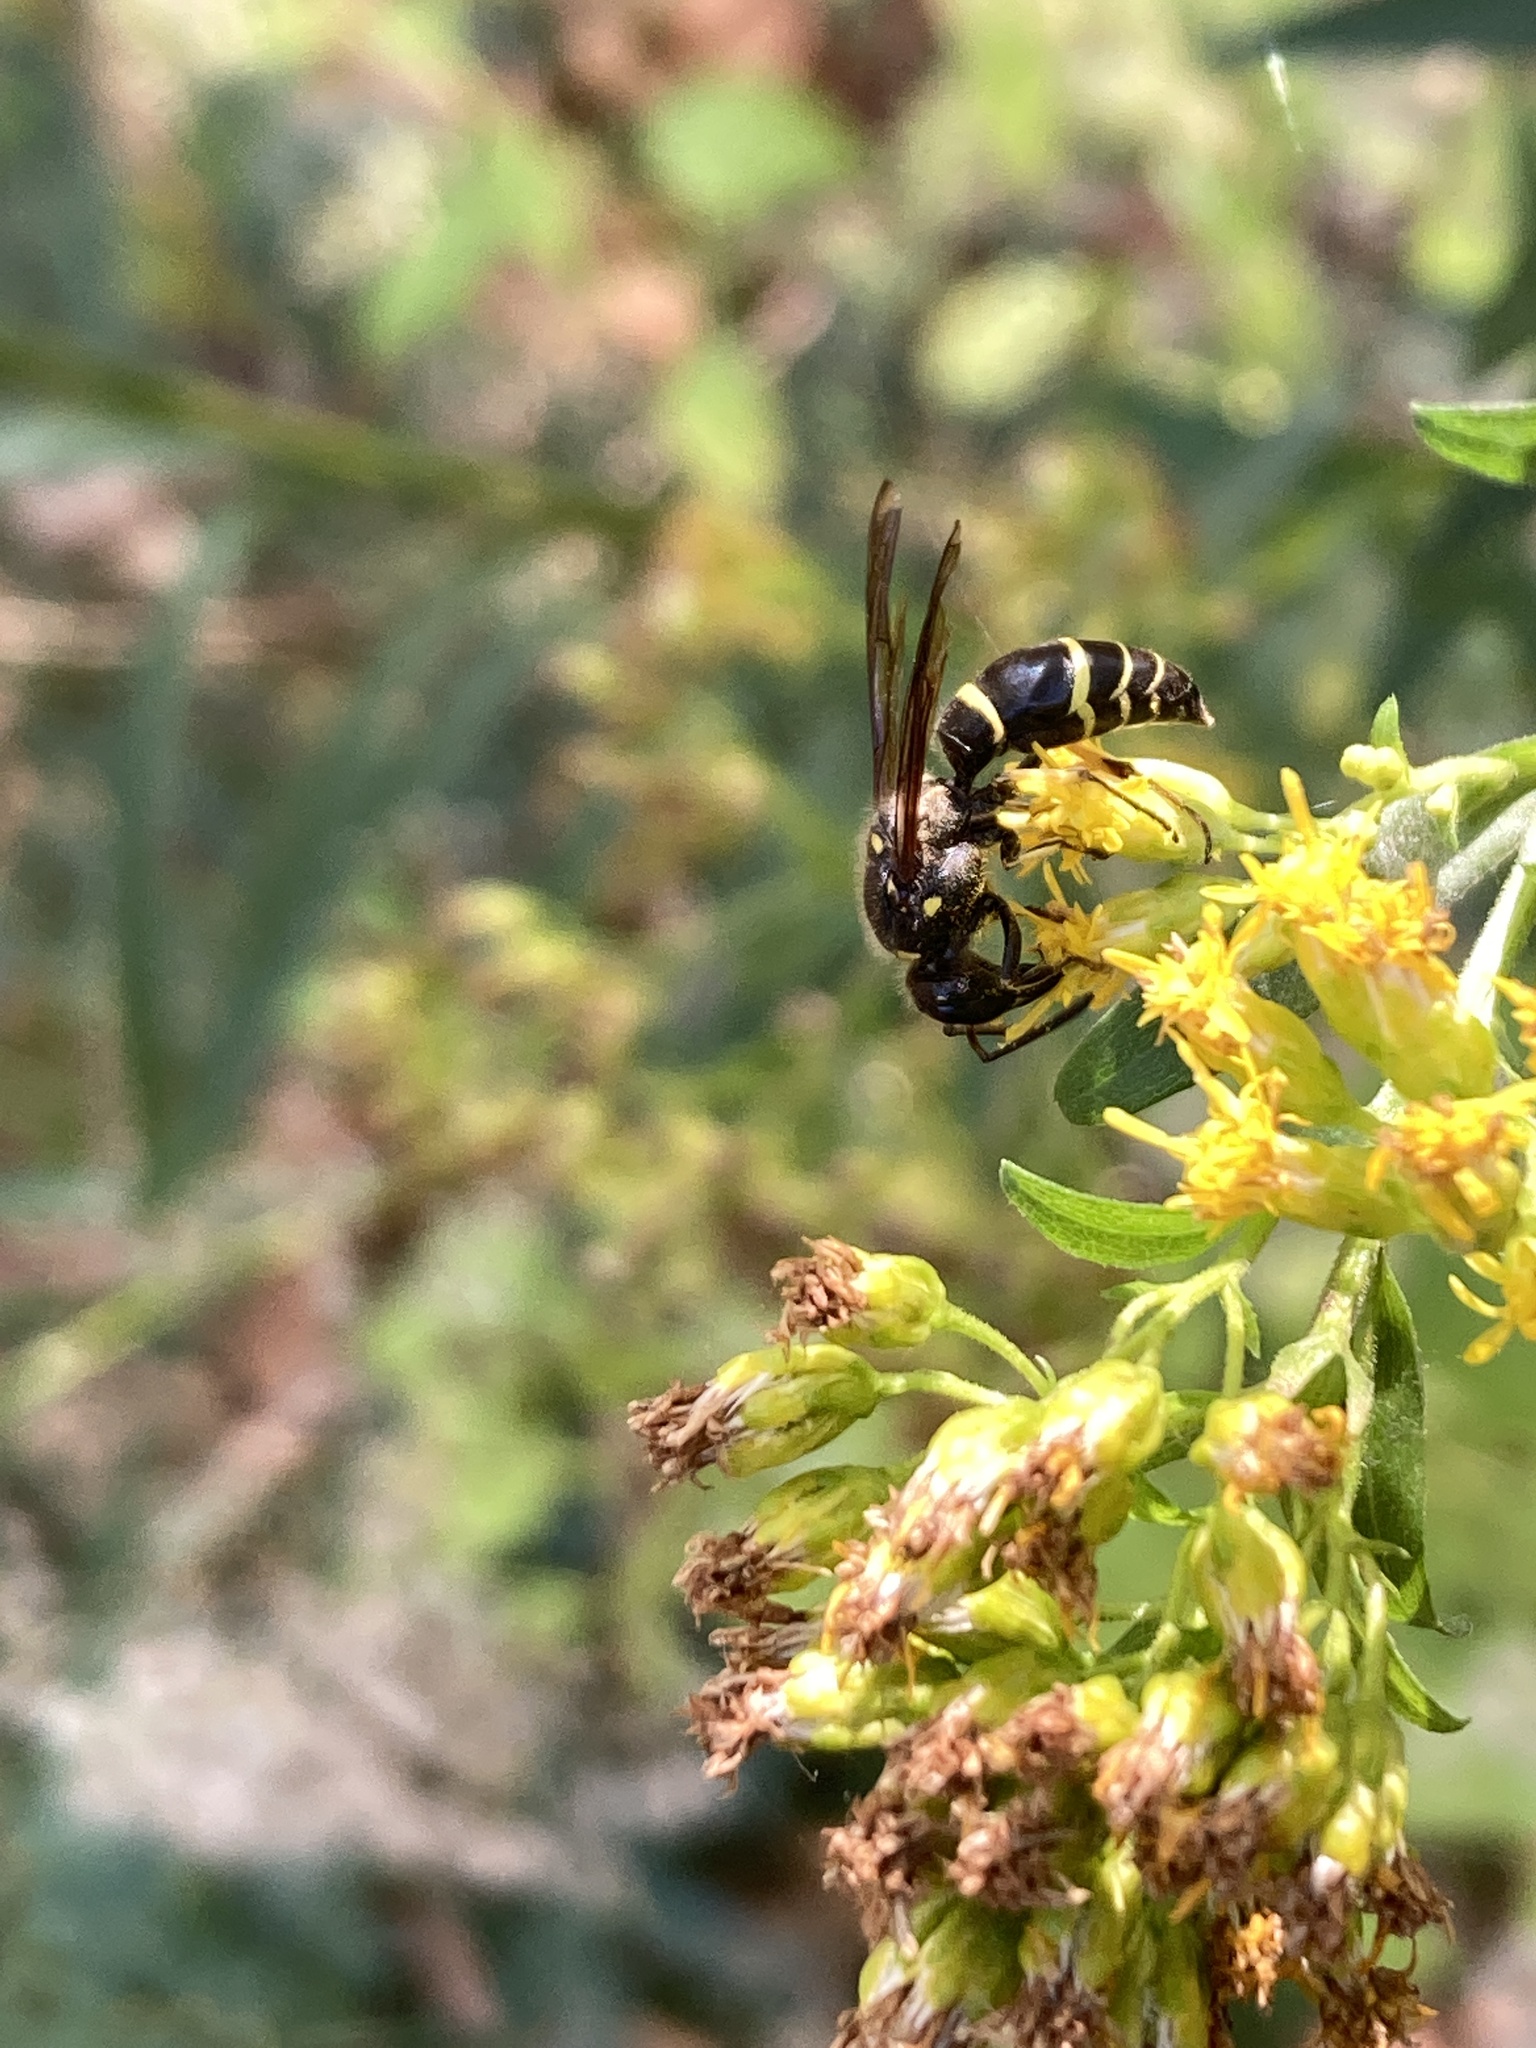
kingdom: Animalia
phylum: Arthropoda
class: Insecta
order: Hymenoptera
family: Vespidae
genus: Ancistrocerus
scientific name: Ancistrocerus
